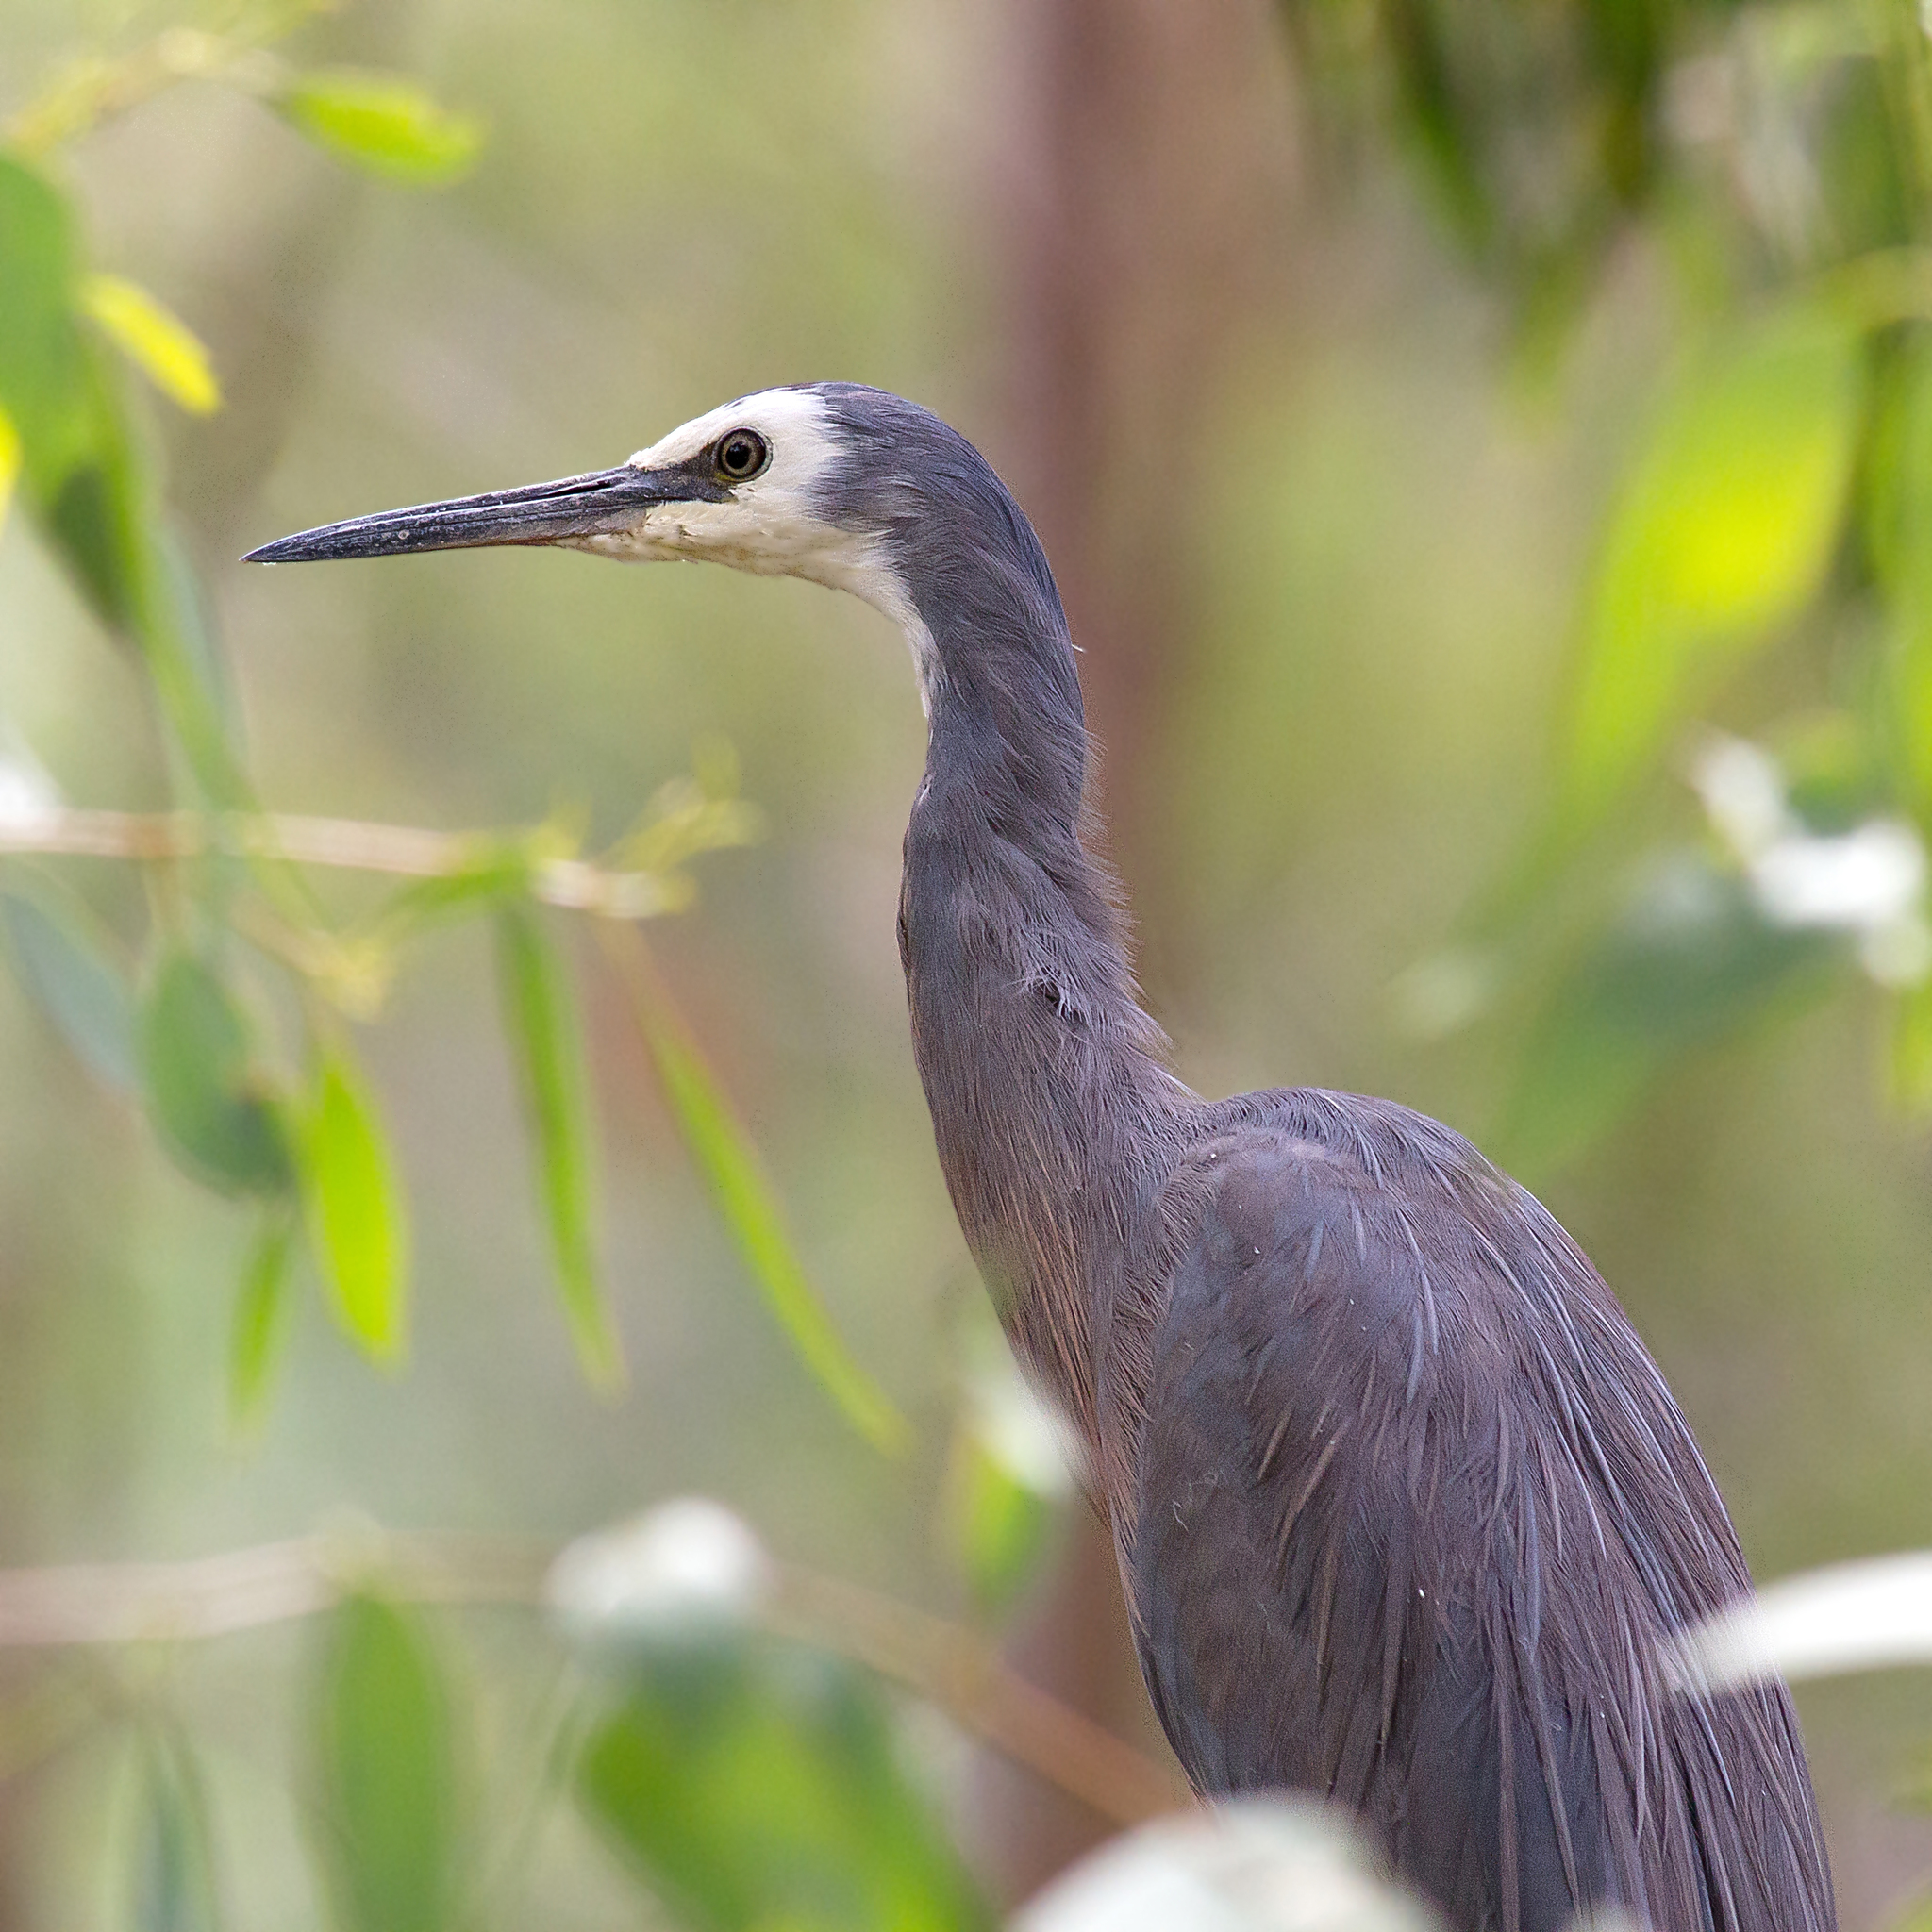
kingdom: Animalia
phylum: Chordata
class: Aves
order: Pelecaniformes
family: Ardeidae
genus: Egretta
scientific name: Egretta novaehollandiae
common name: White-faced heron
